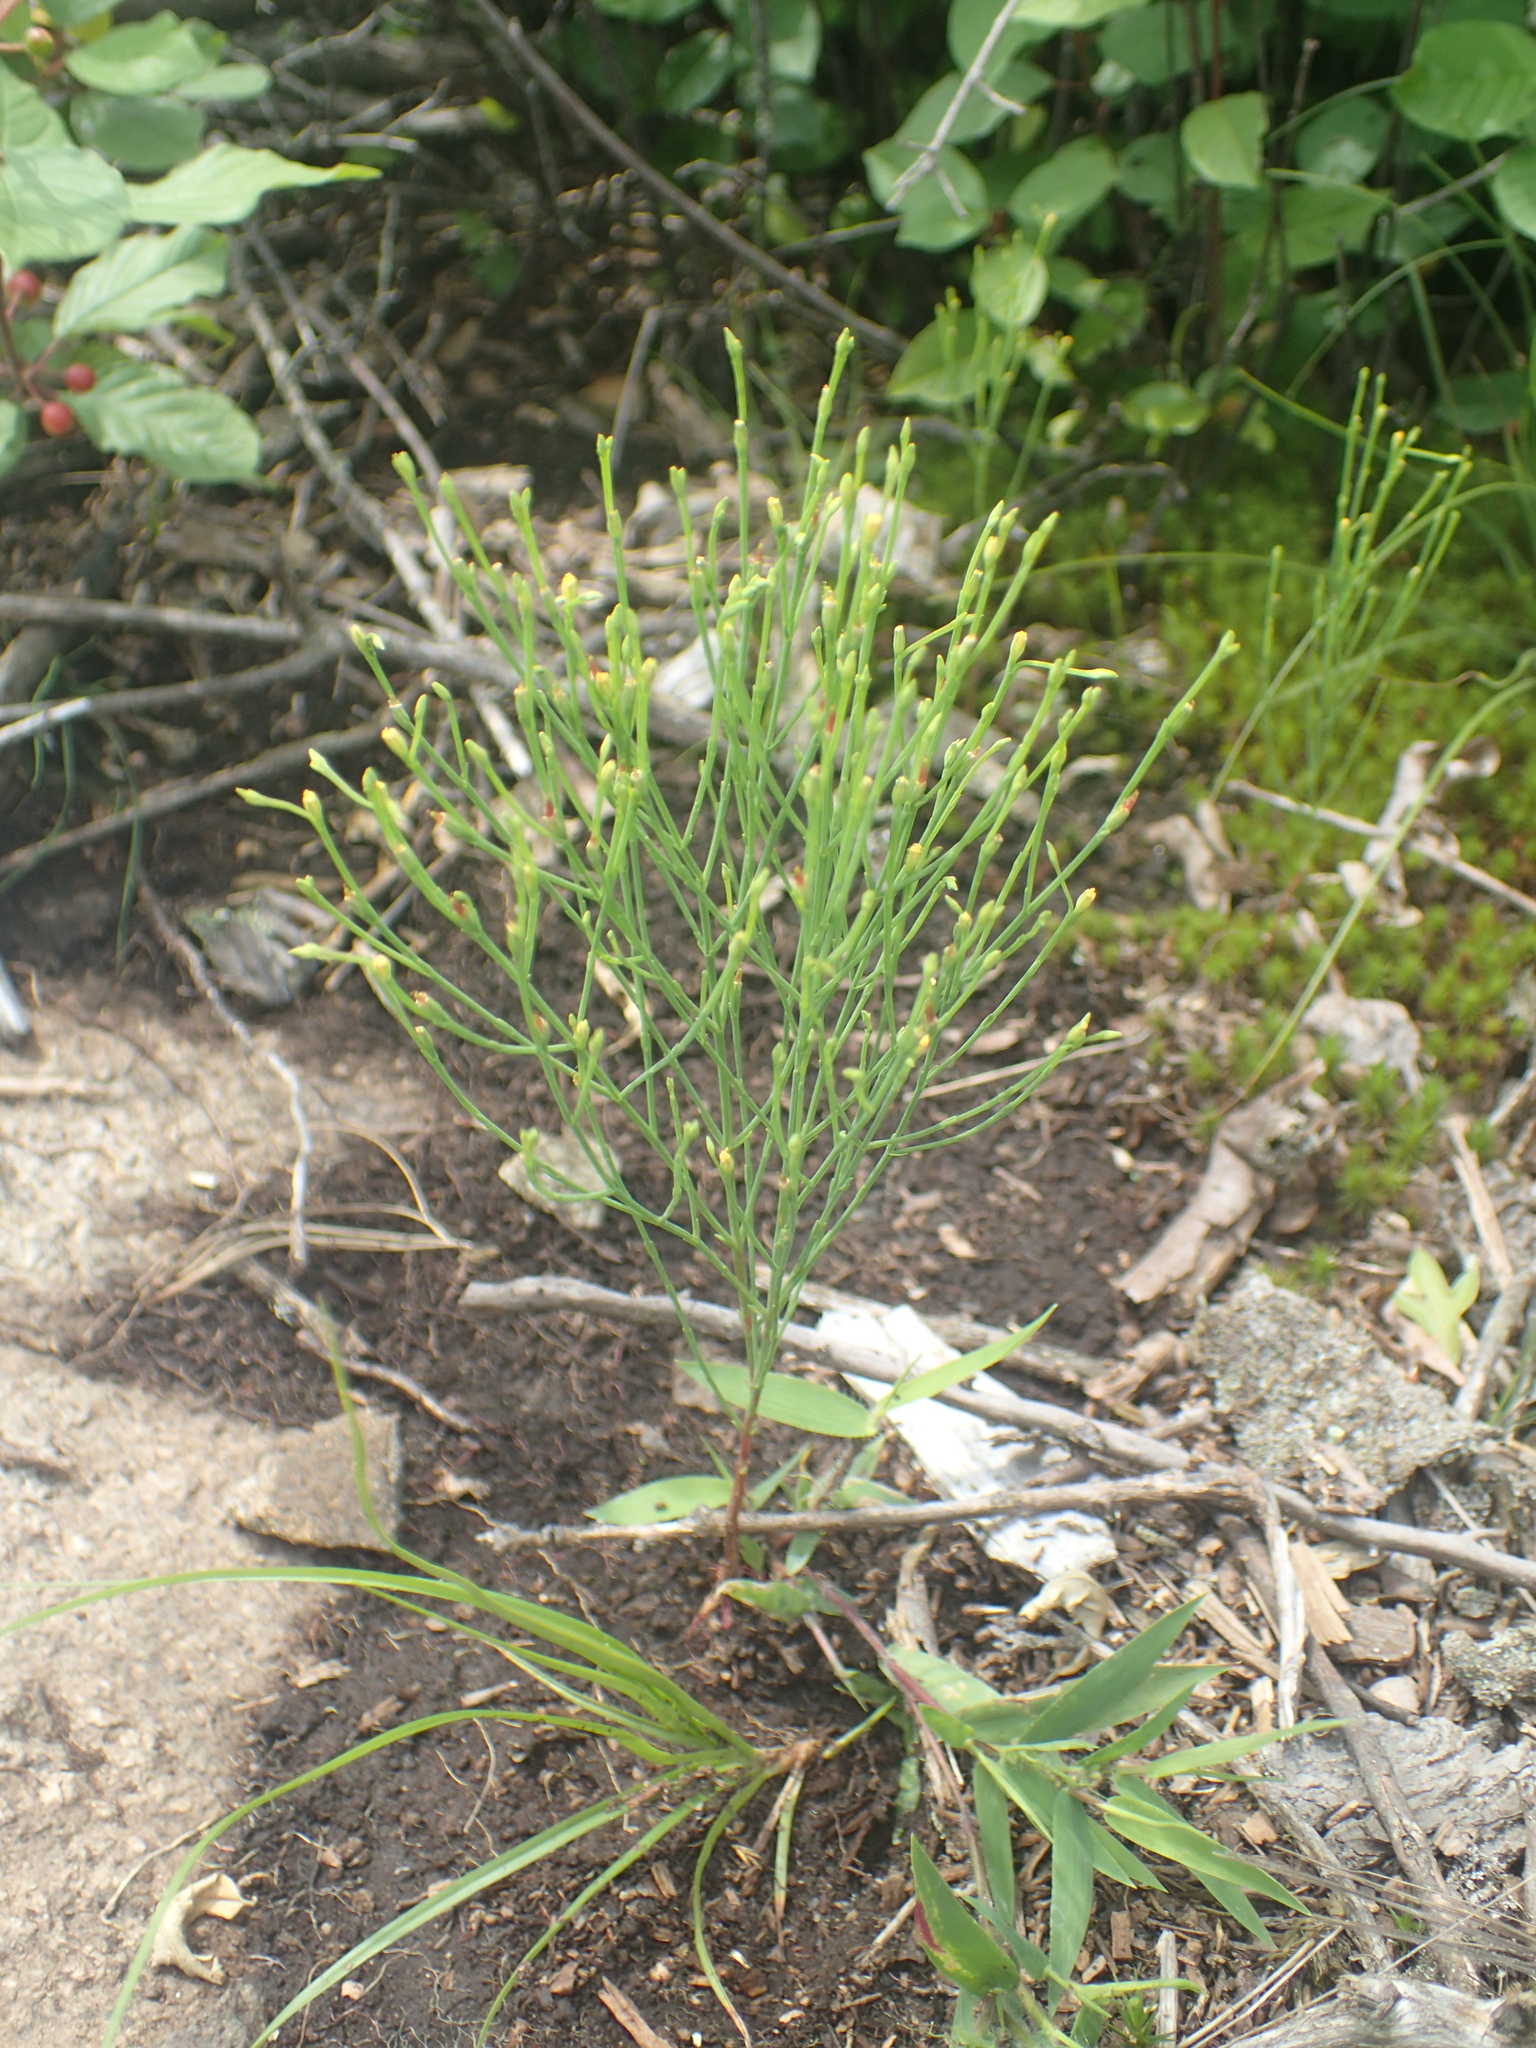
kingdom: Plantae
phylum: Tracheophyta
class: Magnoliopsida
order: Malpighiales
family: Hypericaceae
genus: Hypericum
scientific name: Hypericum gentianoides
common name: Gentian-leaved st. john's-wort
